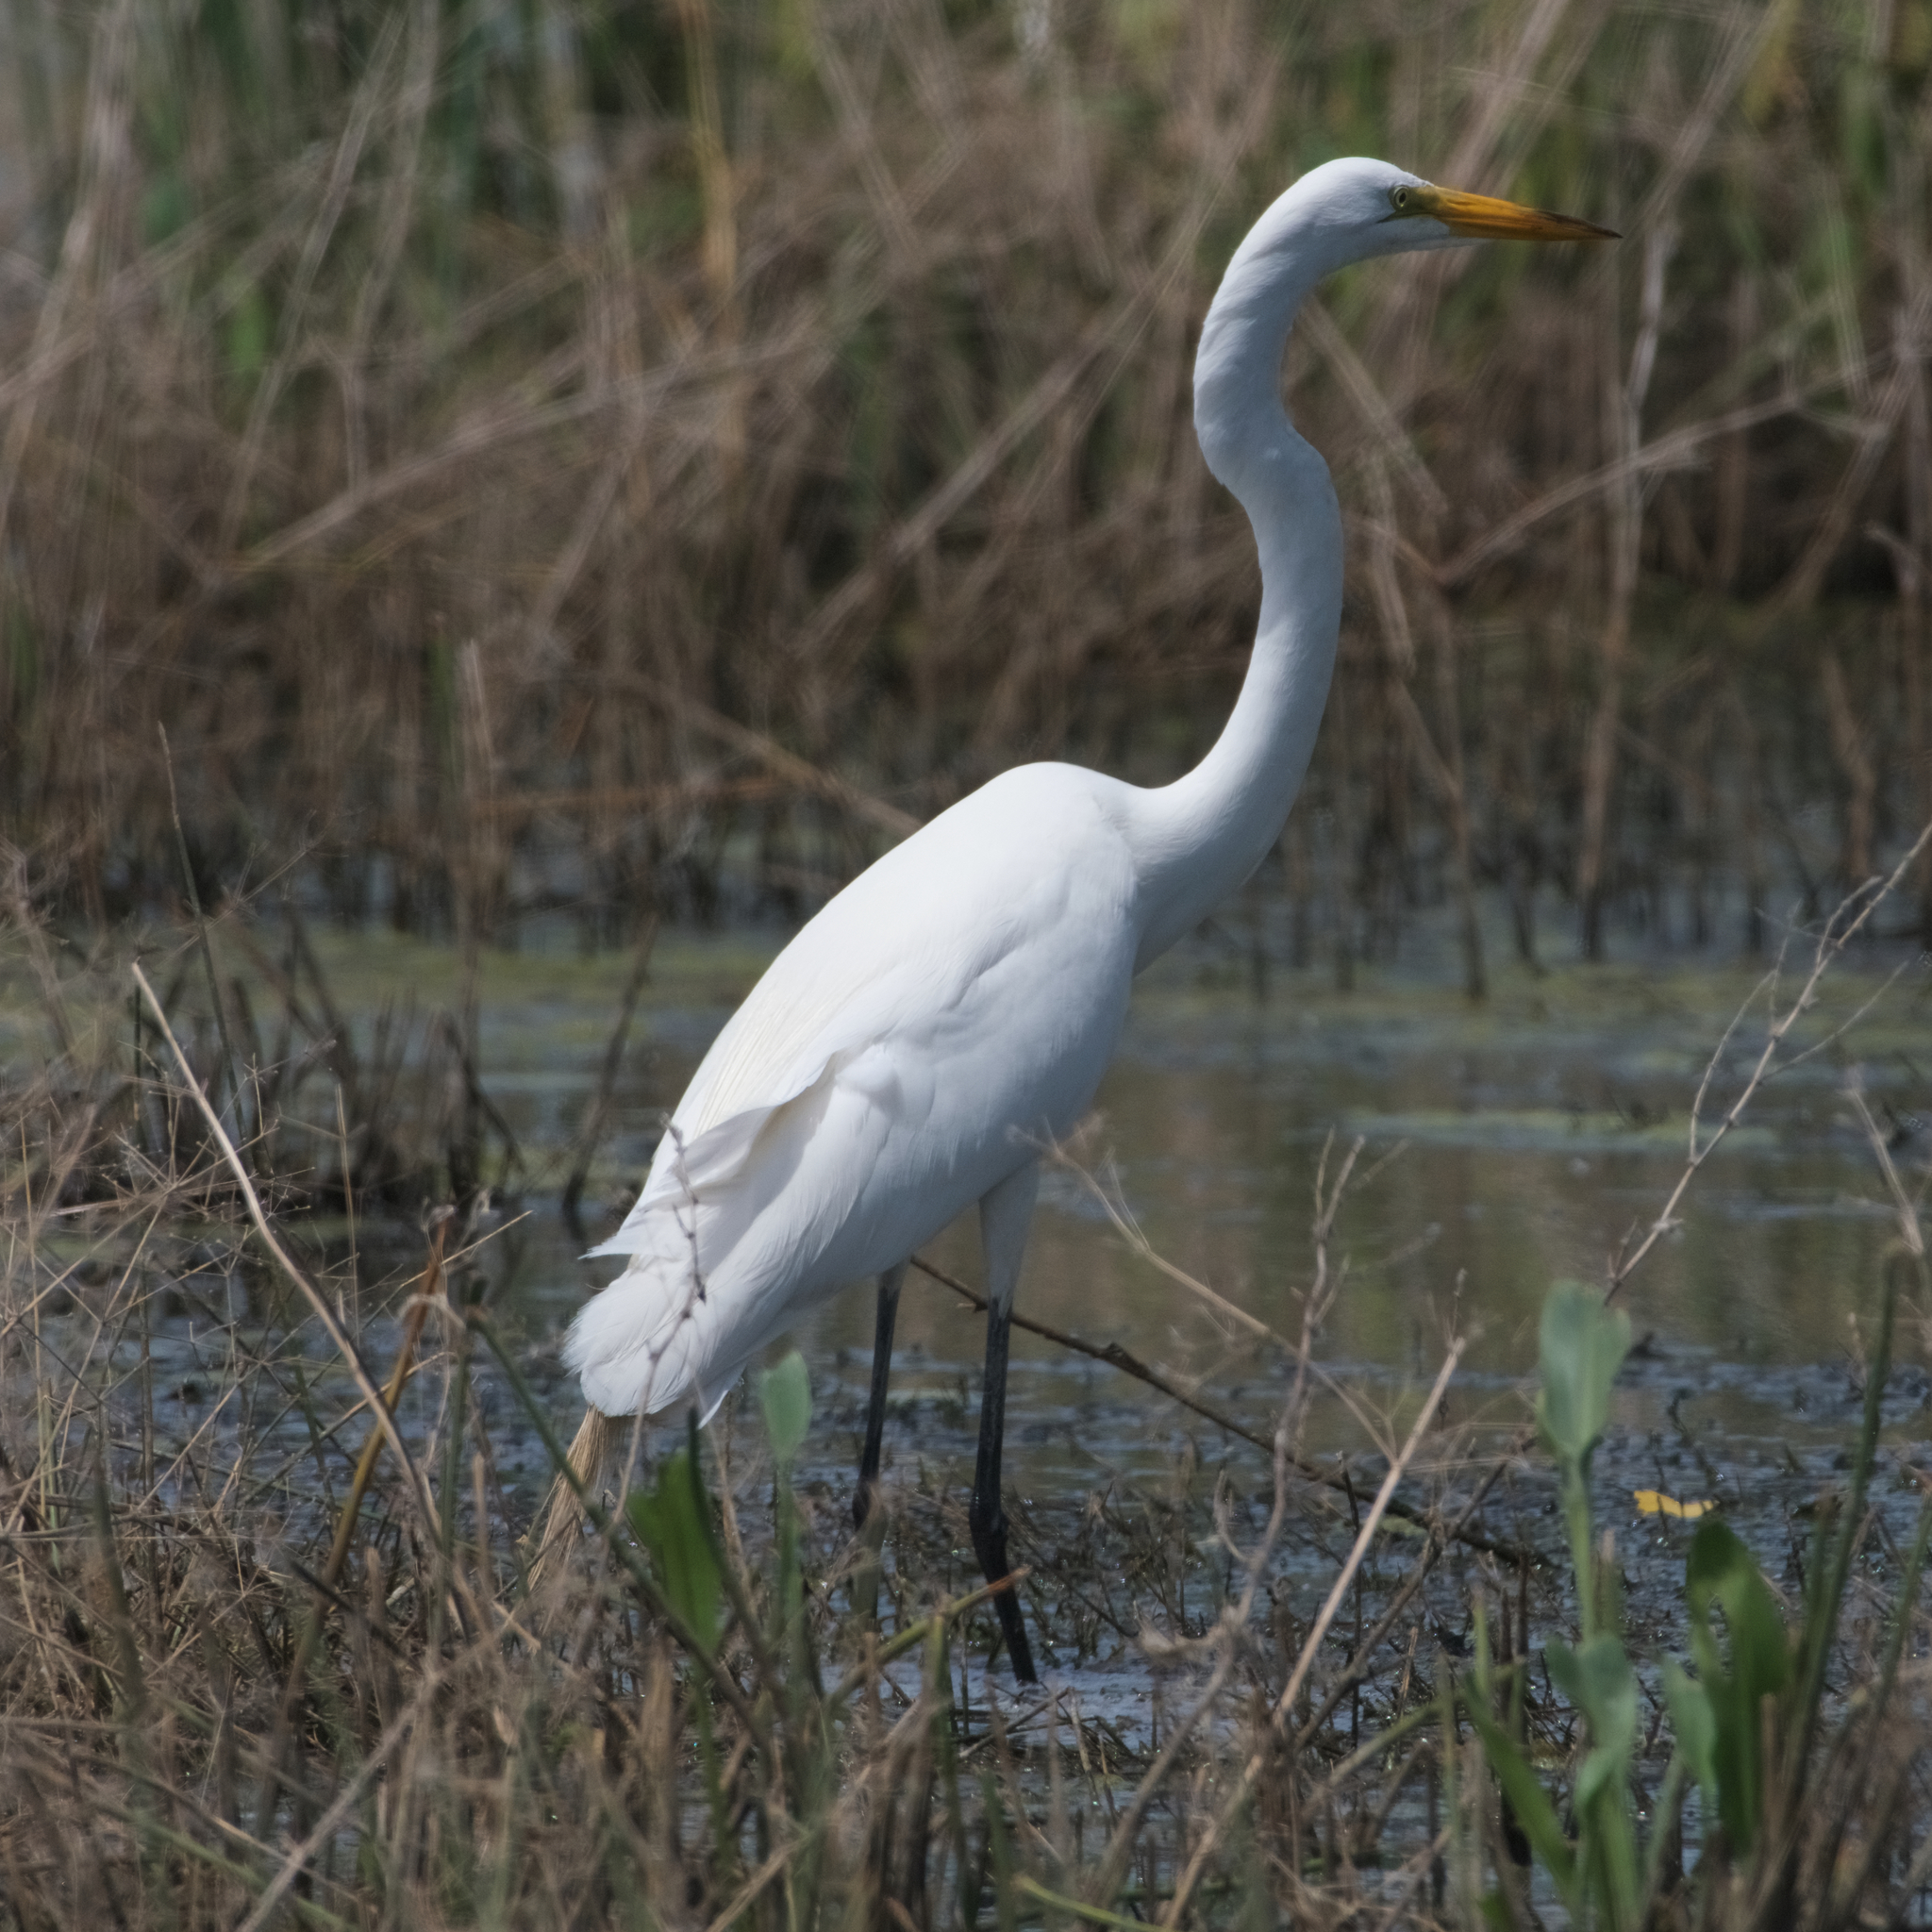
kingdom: Animalia
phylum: Chordata
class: Aves
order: Pelecaniformes
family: Ardeidae
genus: Ardea
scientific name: Ardea alba
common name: Great egret
